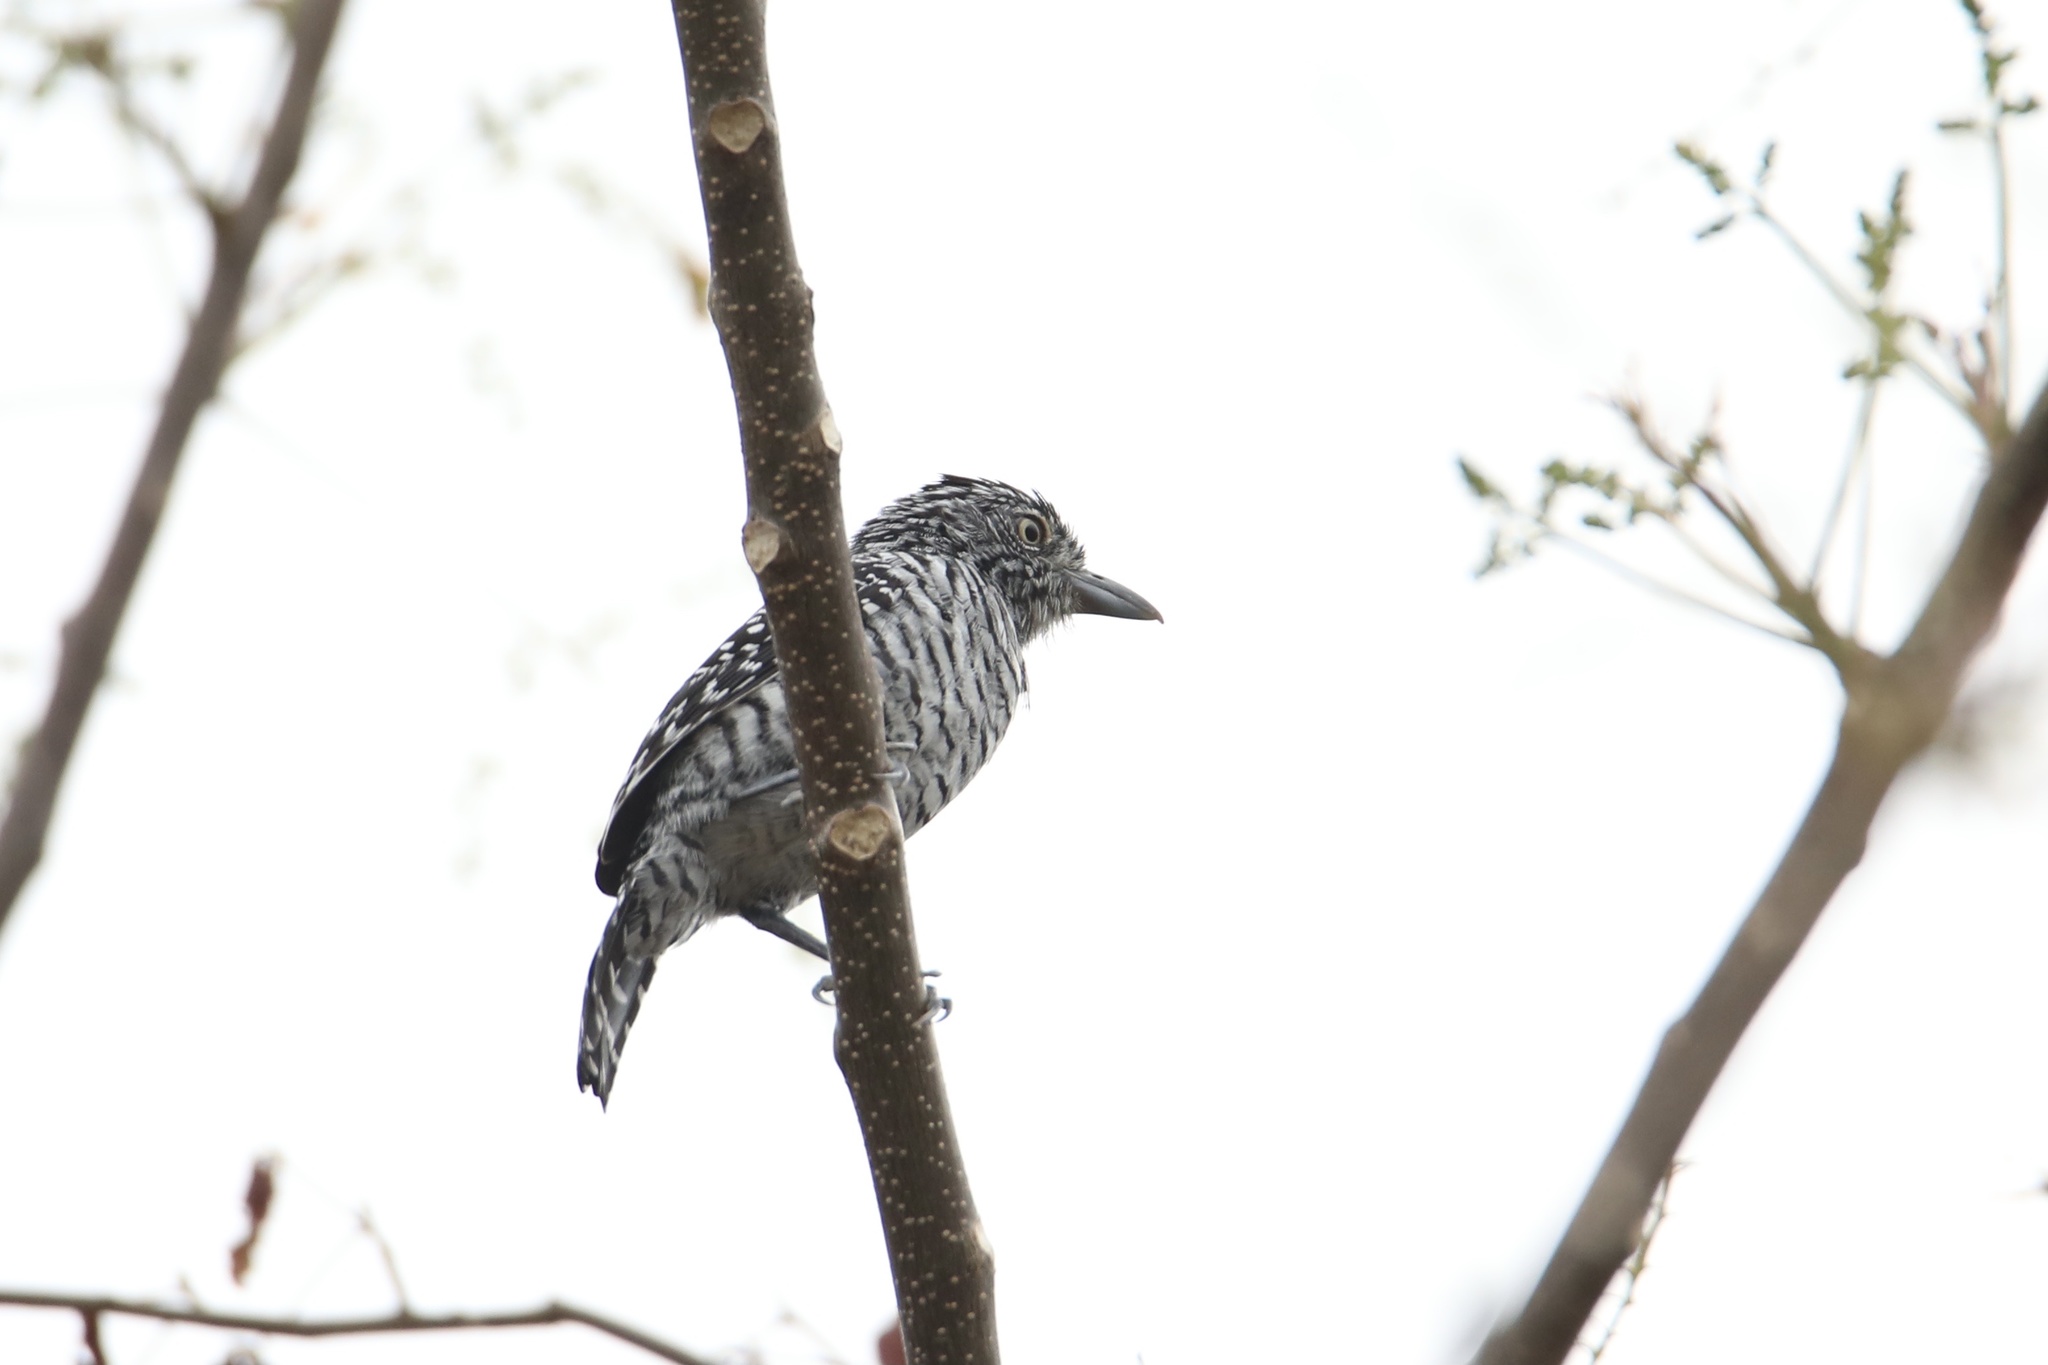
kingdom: Animalia
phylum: Chordata
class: Aves
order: Passeriformes
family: Thamnophilidae
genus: Thamnophilus
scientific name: Thamnophilus doliatus
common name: Barred antshrike
